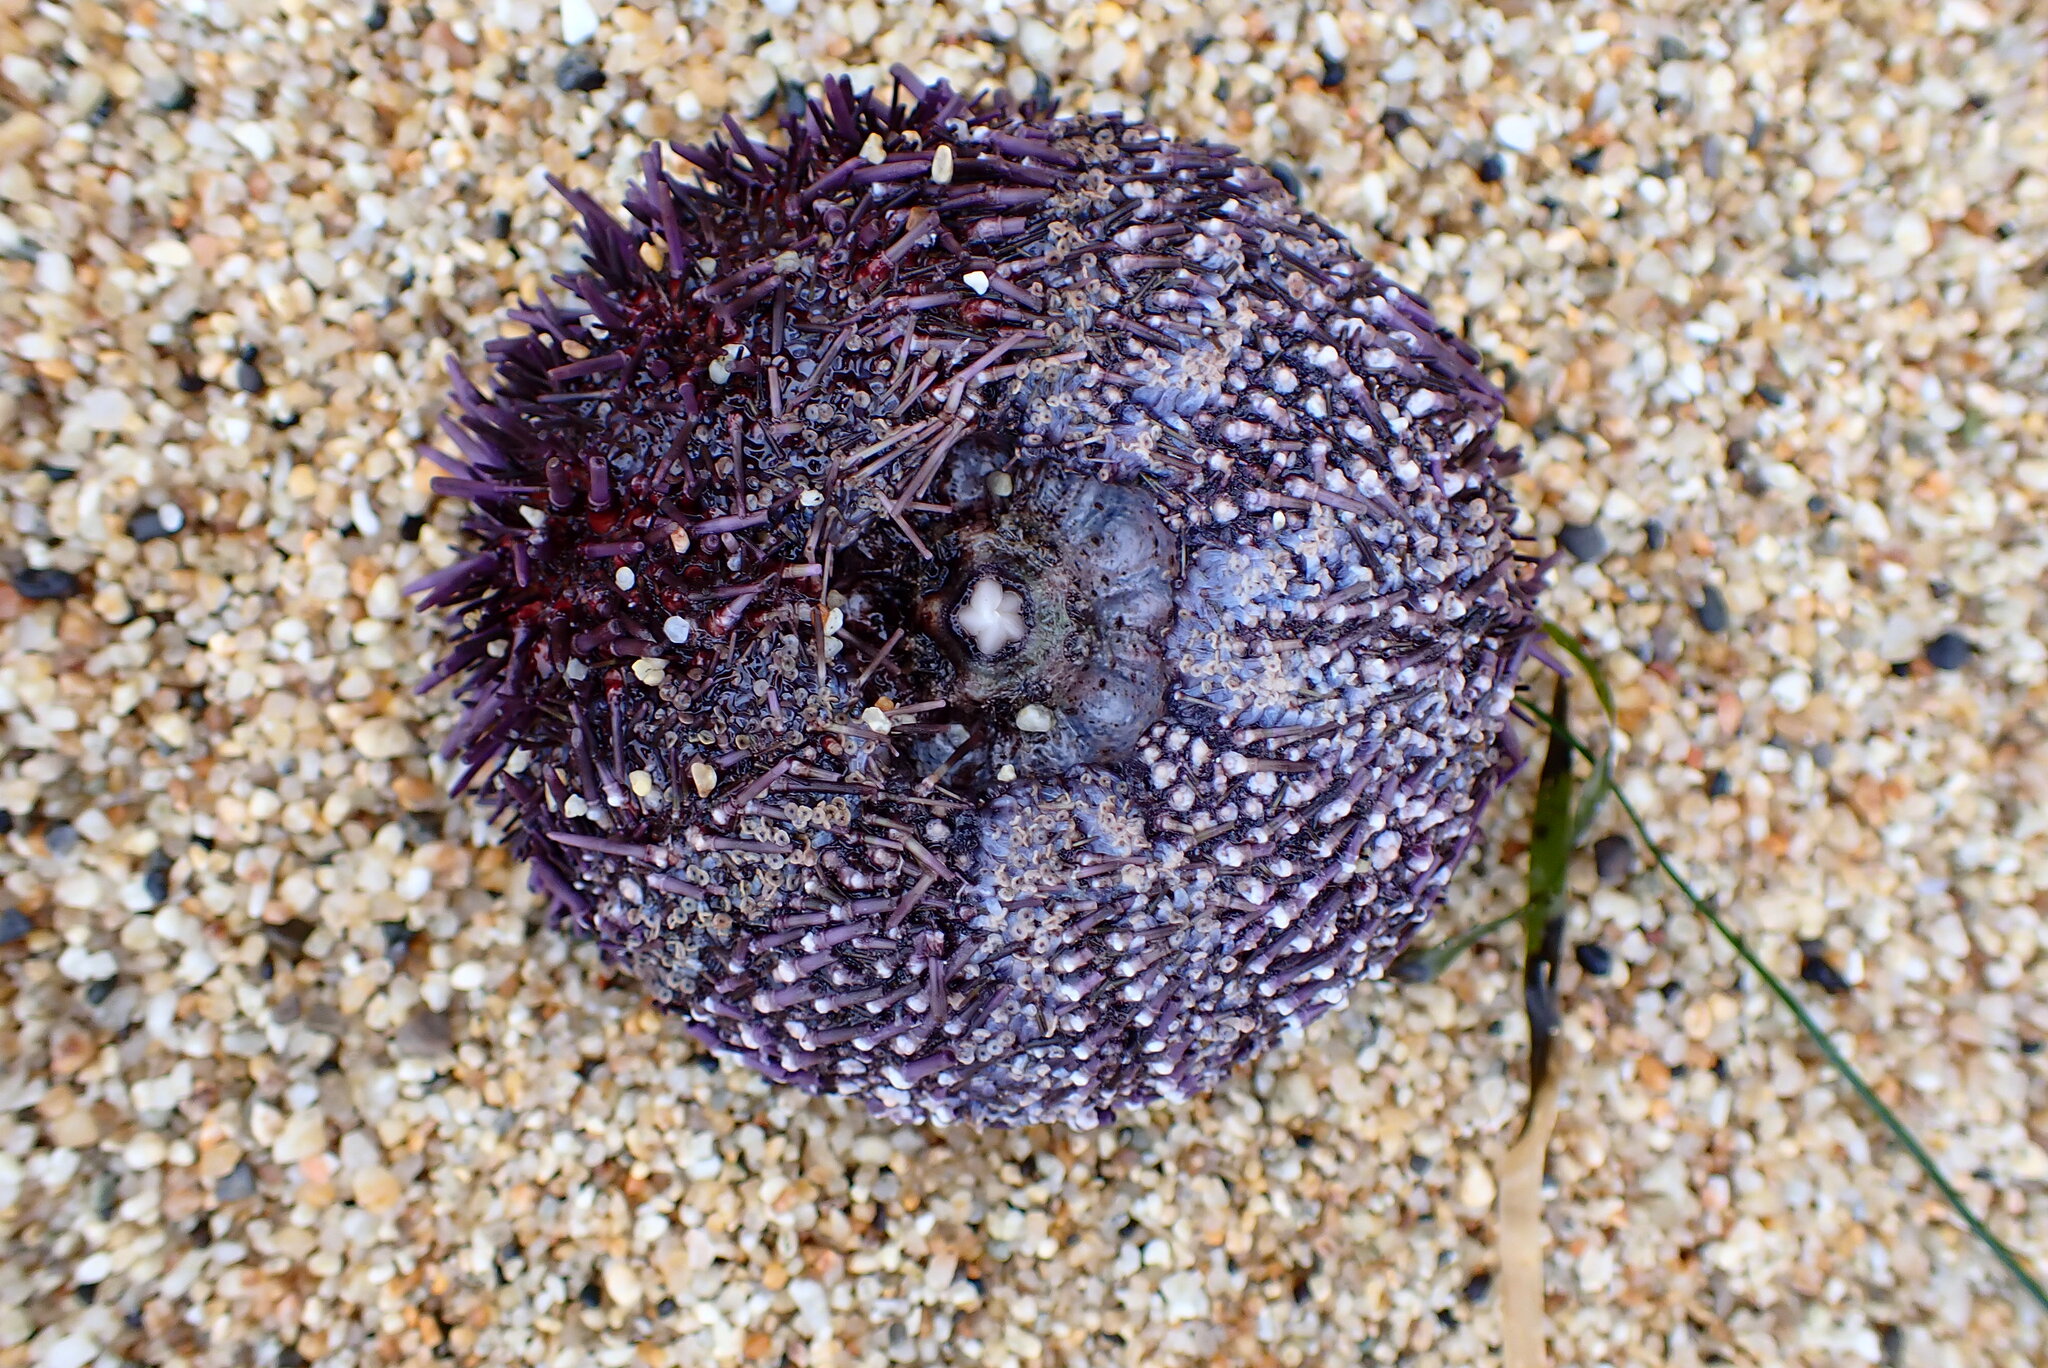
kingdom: Animalia
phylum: Echinodermata
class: Echinoidea
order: Camarodonta
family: Strongylocentrotidae
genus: Strongylocentrotus
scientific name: Strongylocentrotus purpuratus
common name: Purple sea urchin
